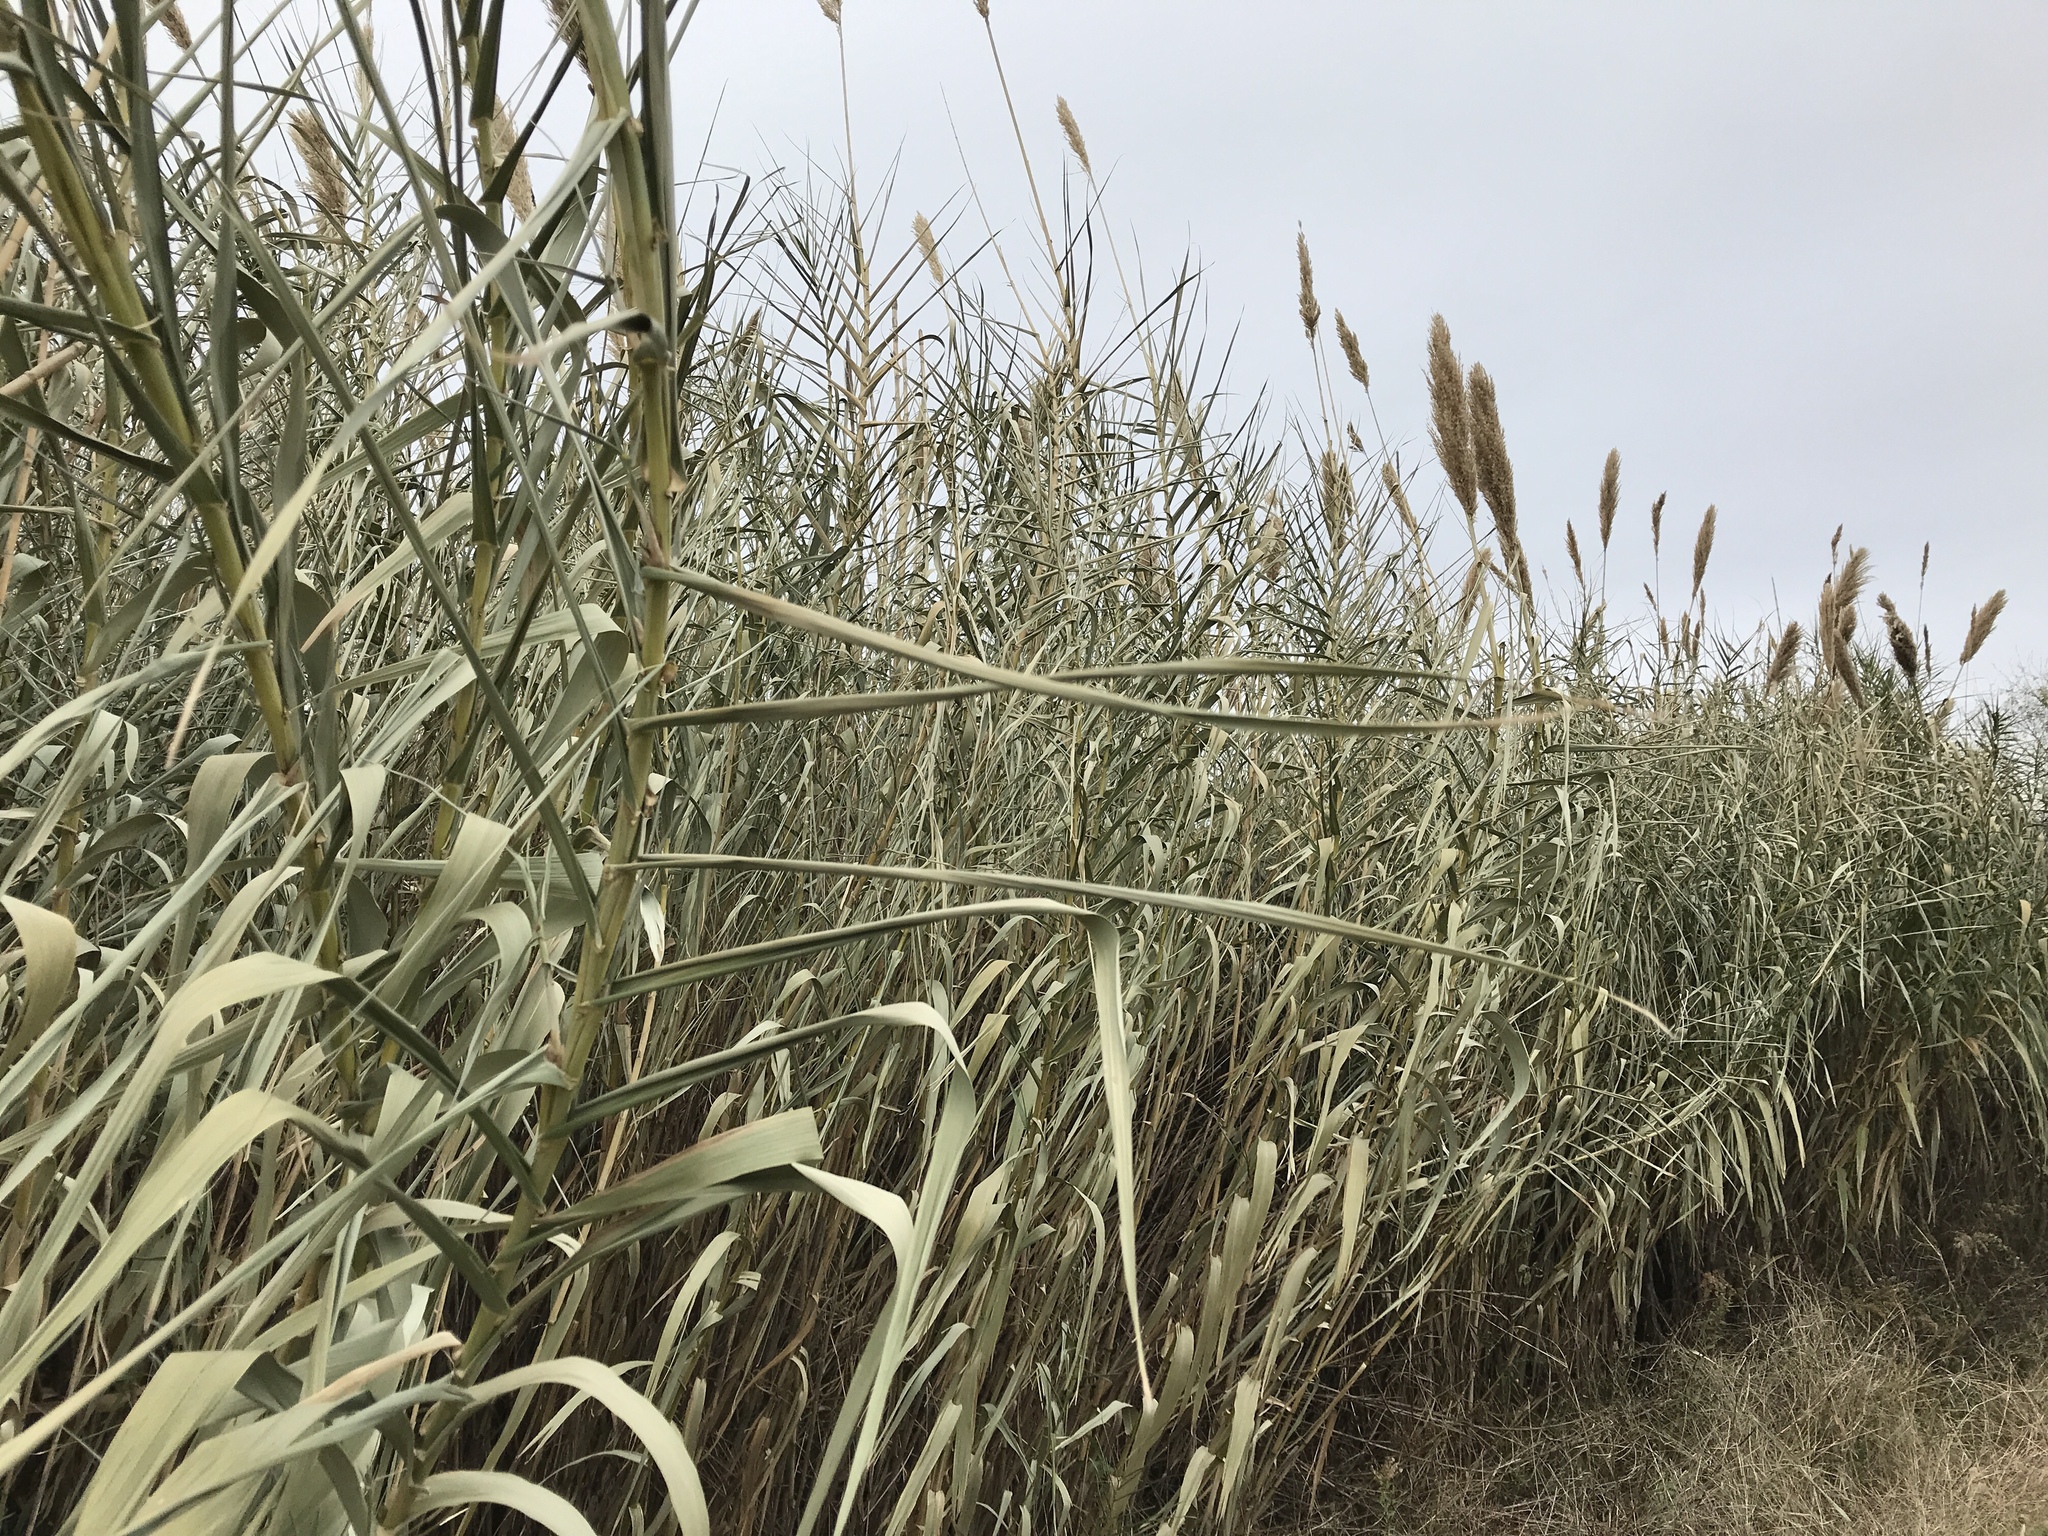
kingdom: Plantae
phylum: Tracheophyta
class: Liliopsida
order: Poales
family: Poaceae
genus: Arundo
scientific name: Arundo donax
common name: Giant reed
